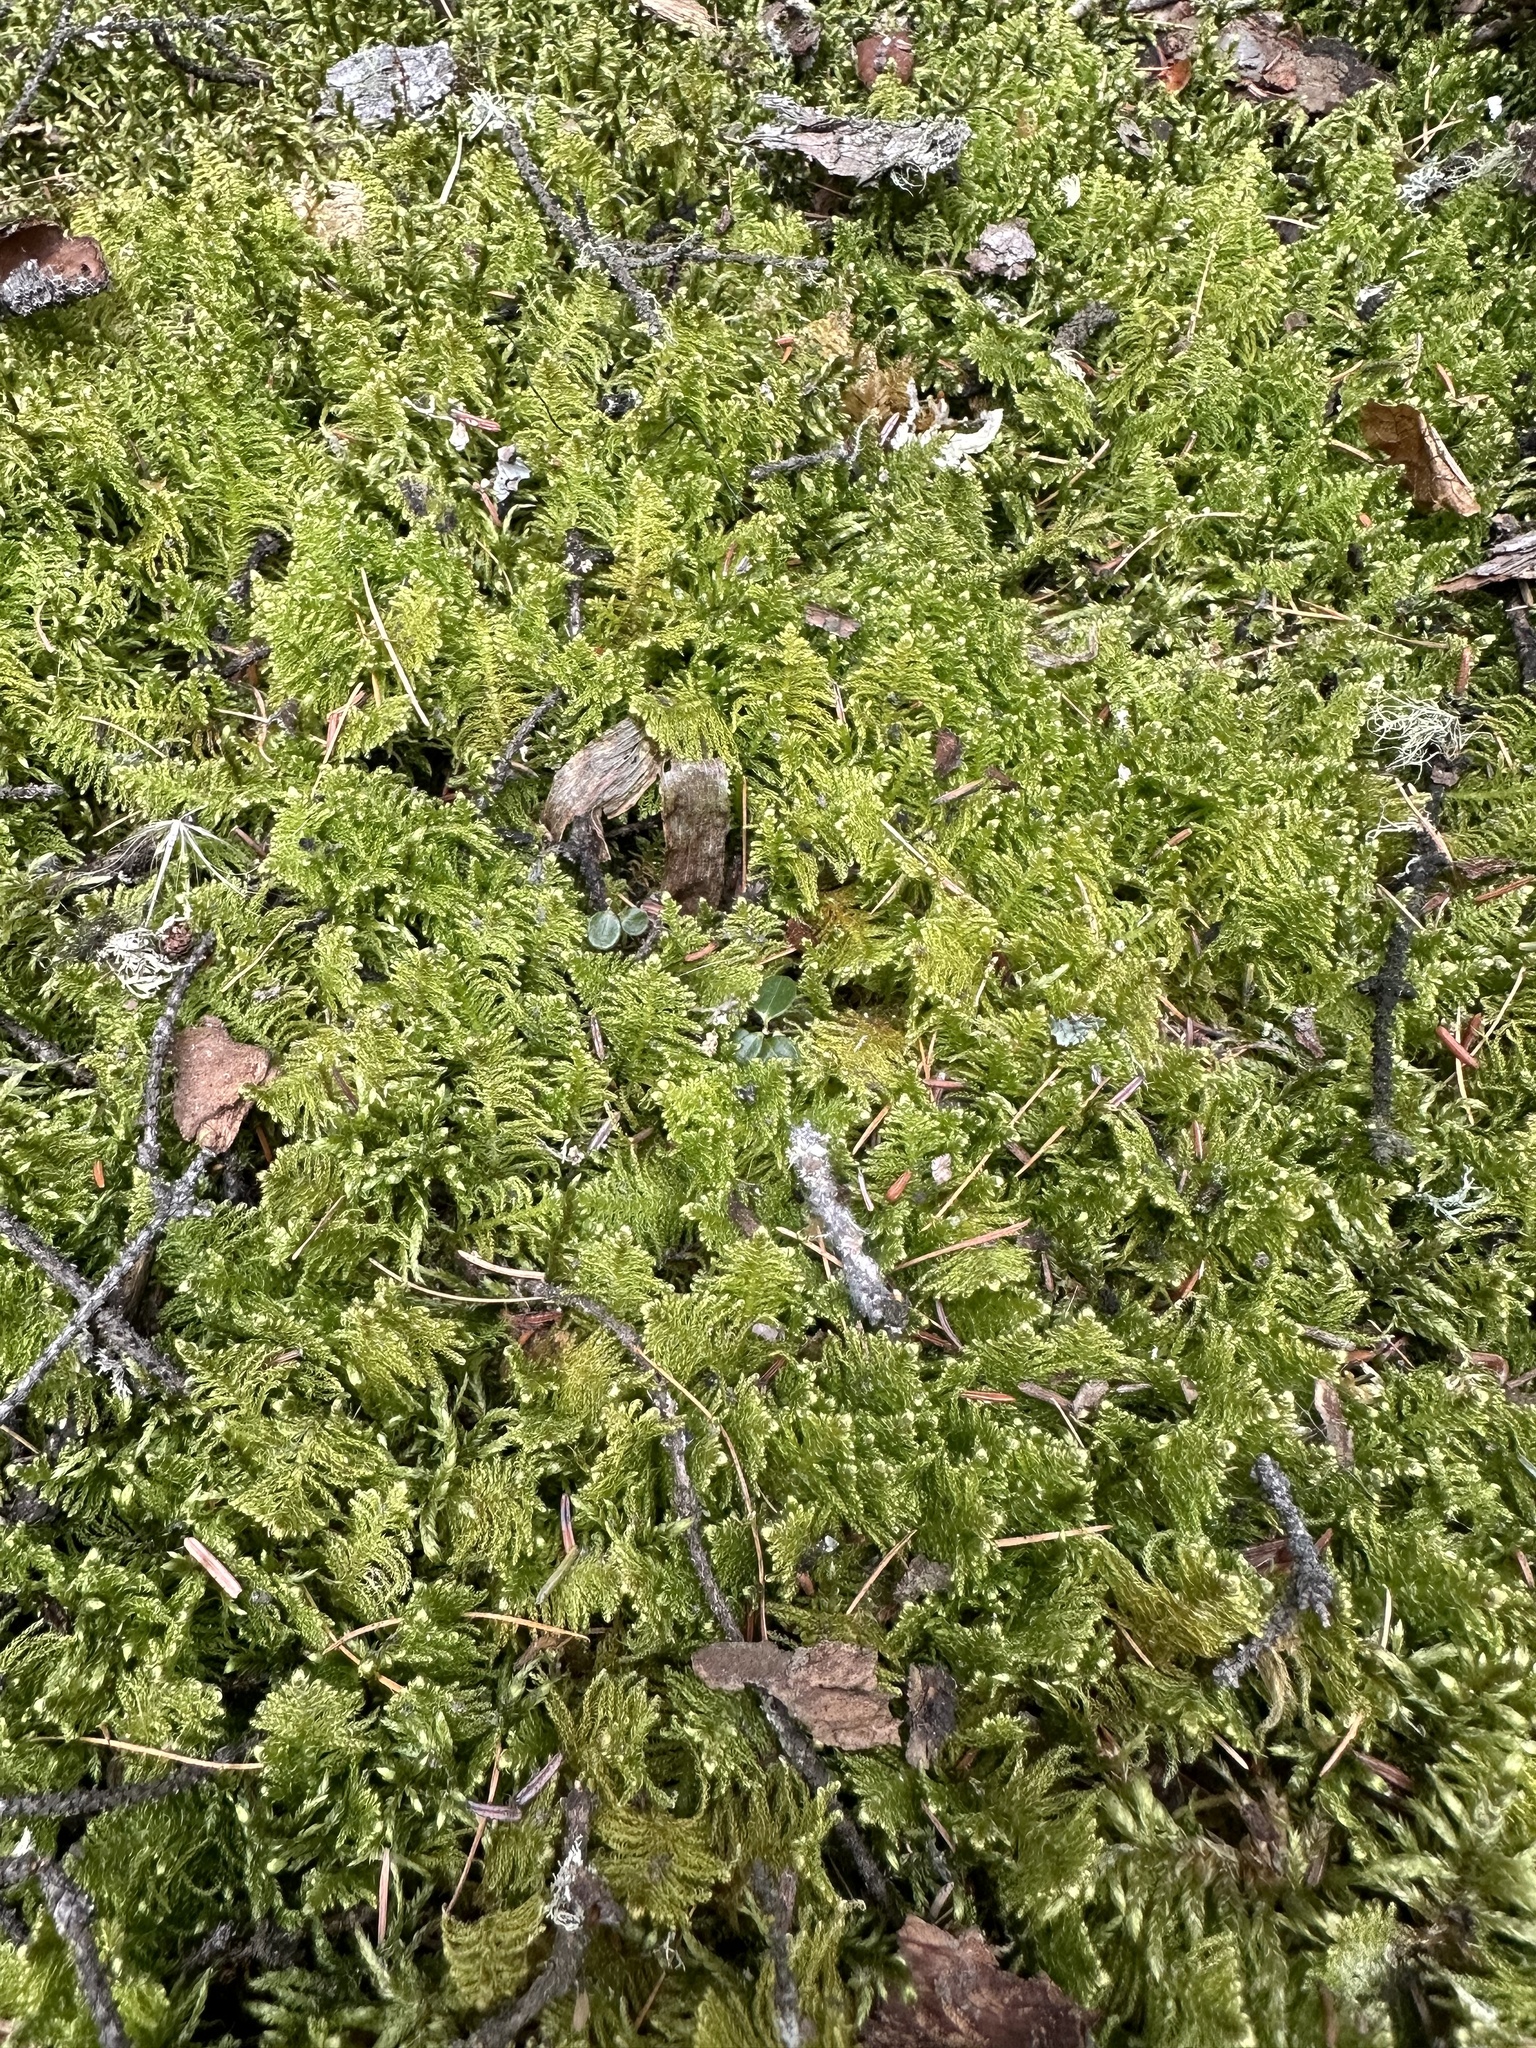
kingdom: Plantae
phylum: Bryophyta
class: Bryopsida
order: Hypnales
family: Pylaisiaceae
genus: Ptilium
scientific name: Ptilium crista-castrensis
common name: Knight's plume moss
